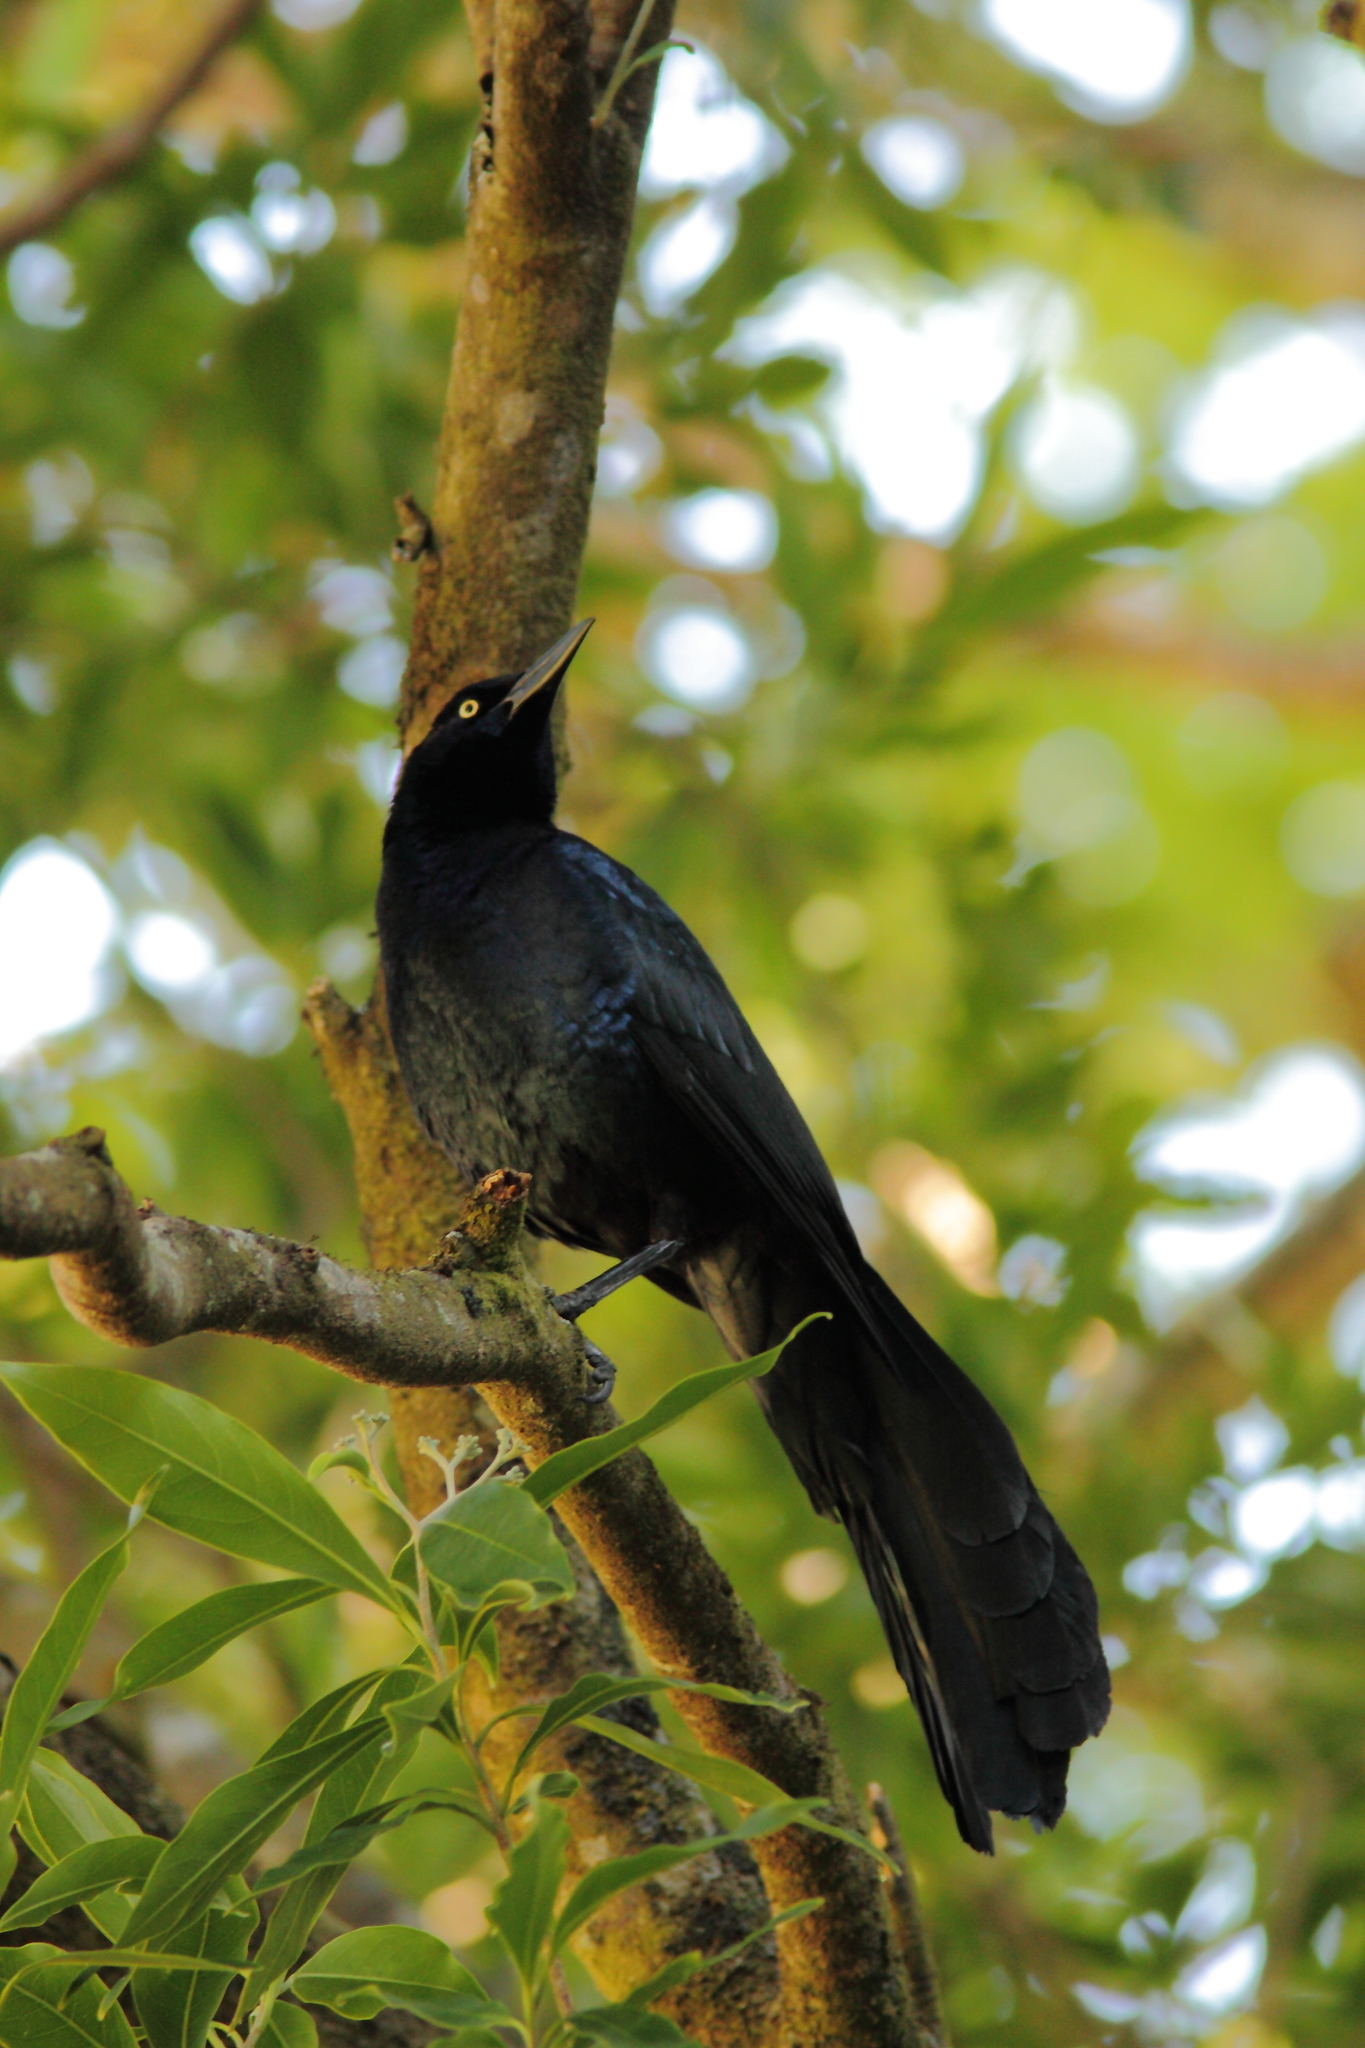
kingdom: Animalia
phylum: Chordata
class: Aves
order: Passeriformes
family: Icteridae
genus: Quiscalus
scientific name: Quiscalus mexicanus
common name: Great-tailed grackle
